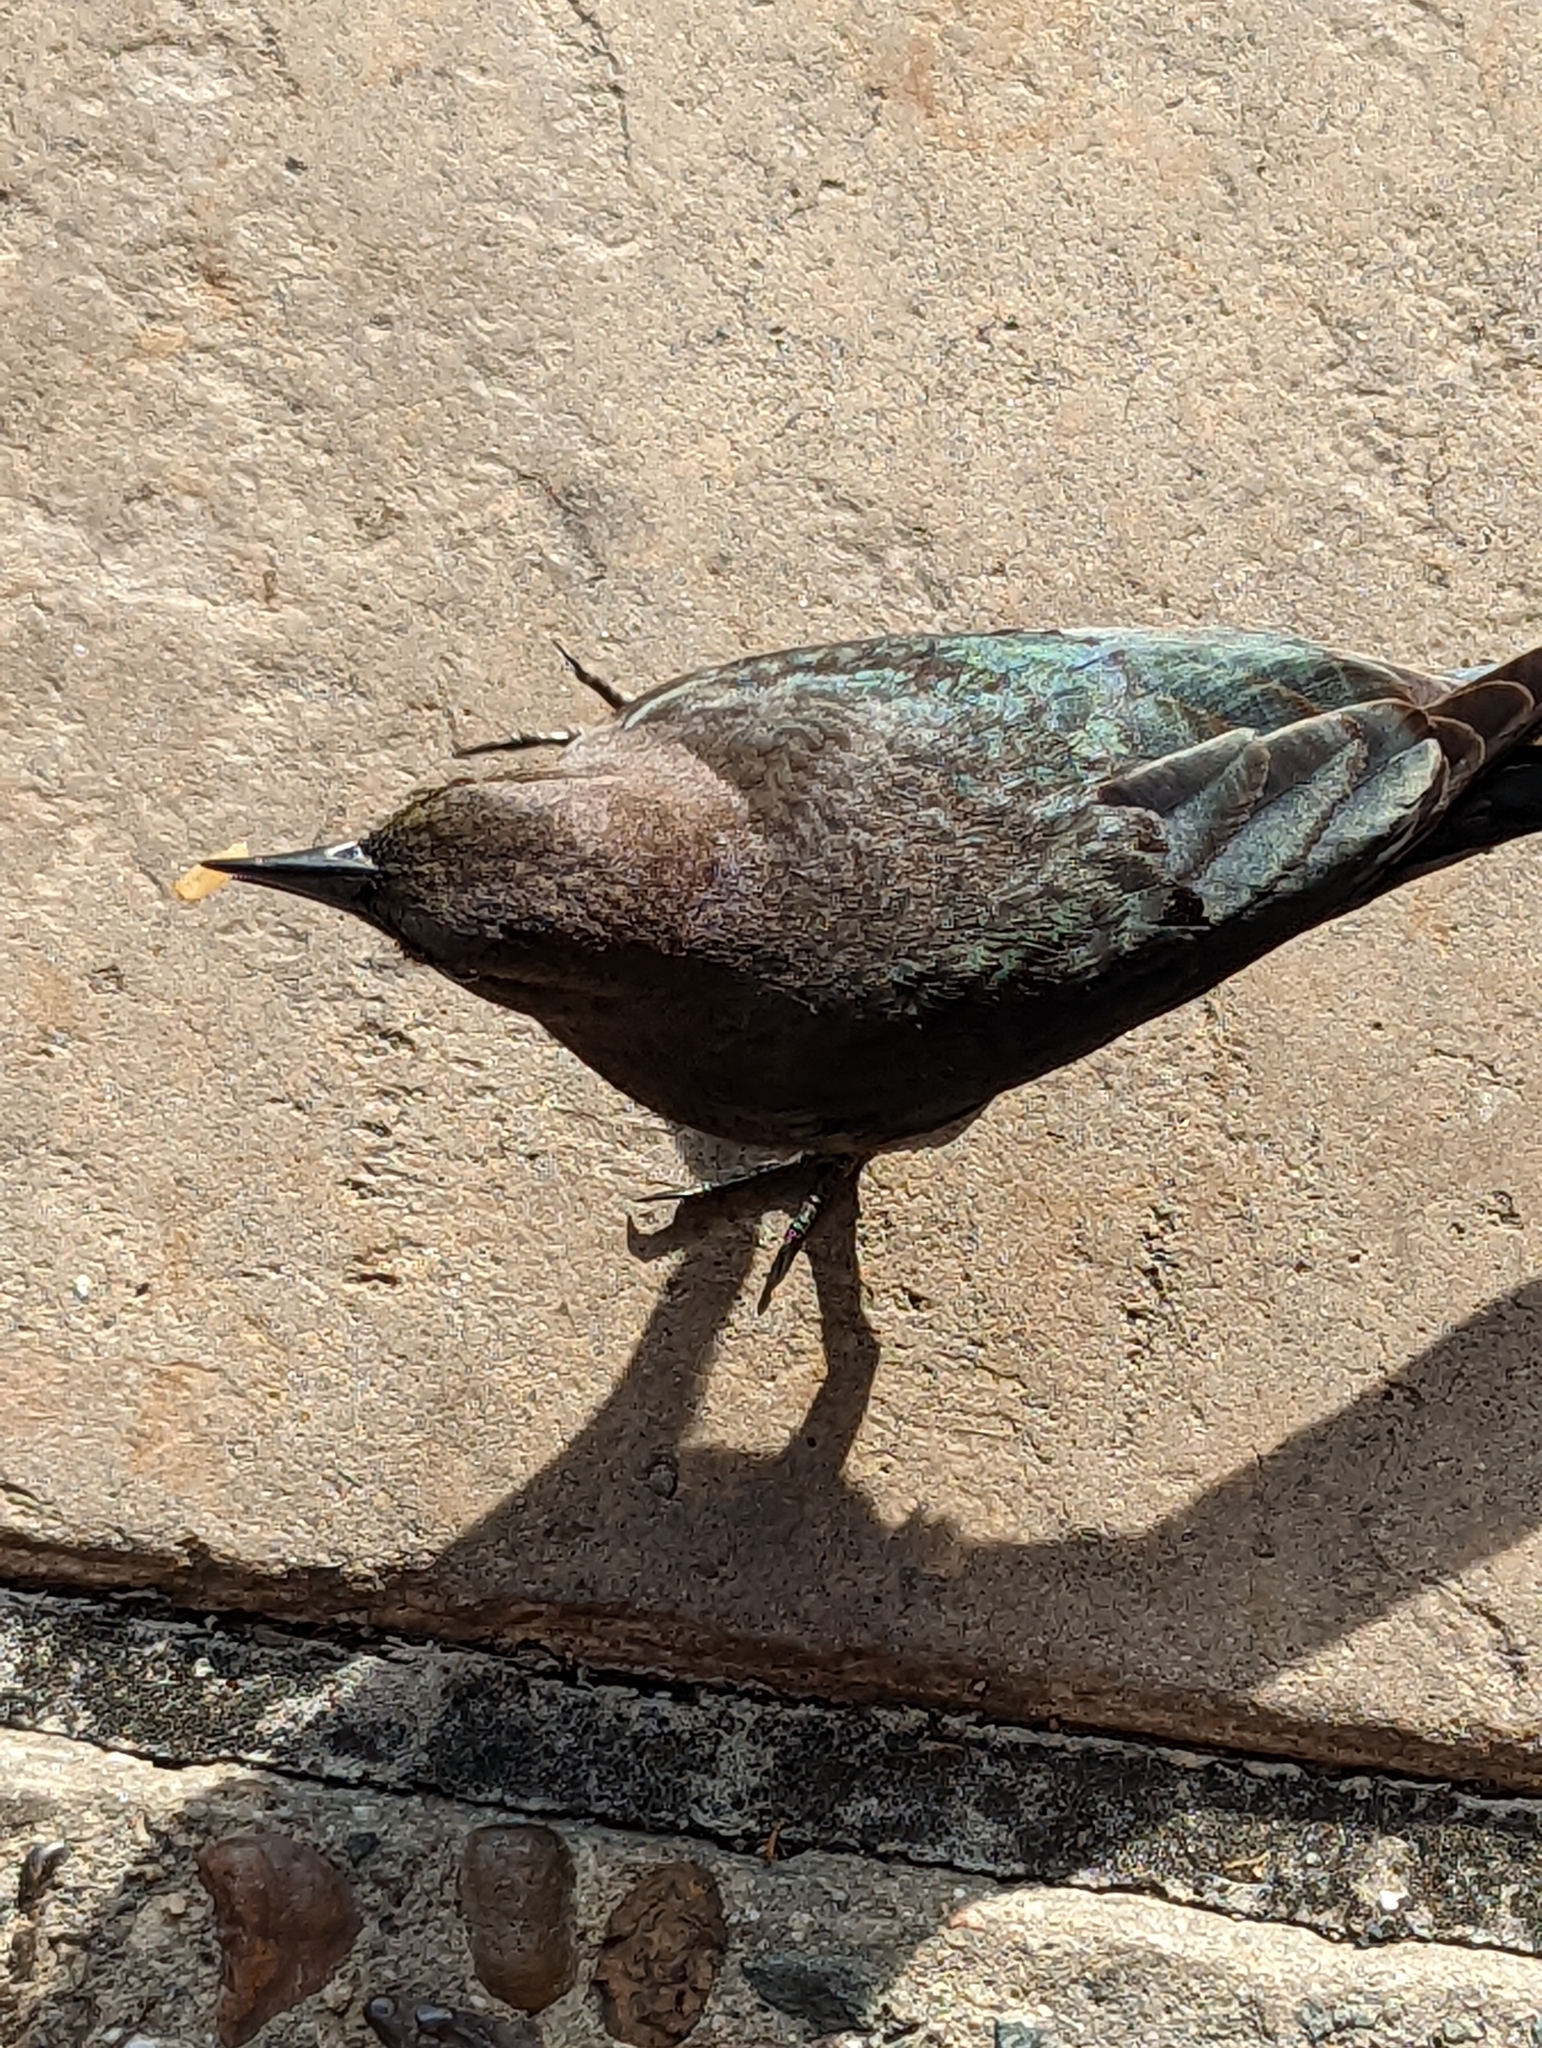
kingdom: Animalia
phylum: Chordata
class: Aves
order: Passeriformes
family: Icteridae
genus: Euphagus
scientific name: Euphagus cyanocephalus
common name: Brewer's blackbird
